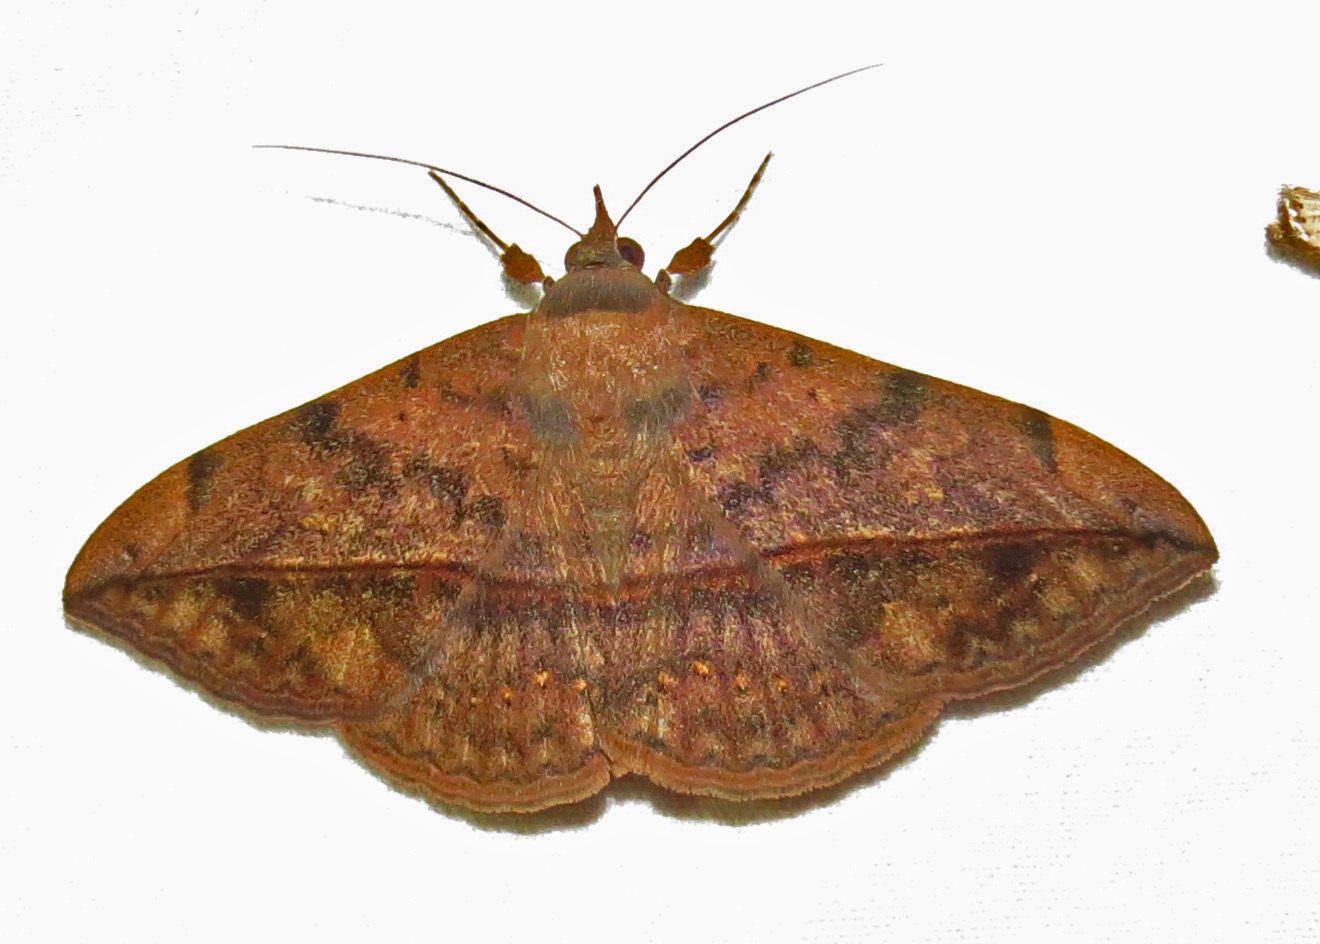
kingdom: Animalia
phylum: Arthropoda
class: Insecta
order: Lepidoptera
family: Erebidae
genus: Anticarsia
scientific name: Anticarsia gemmatalis
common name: Cutworm moth
